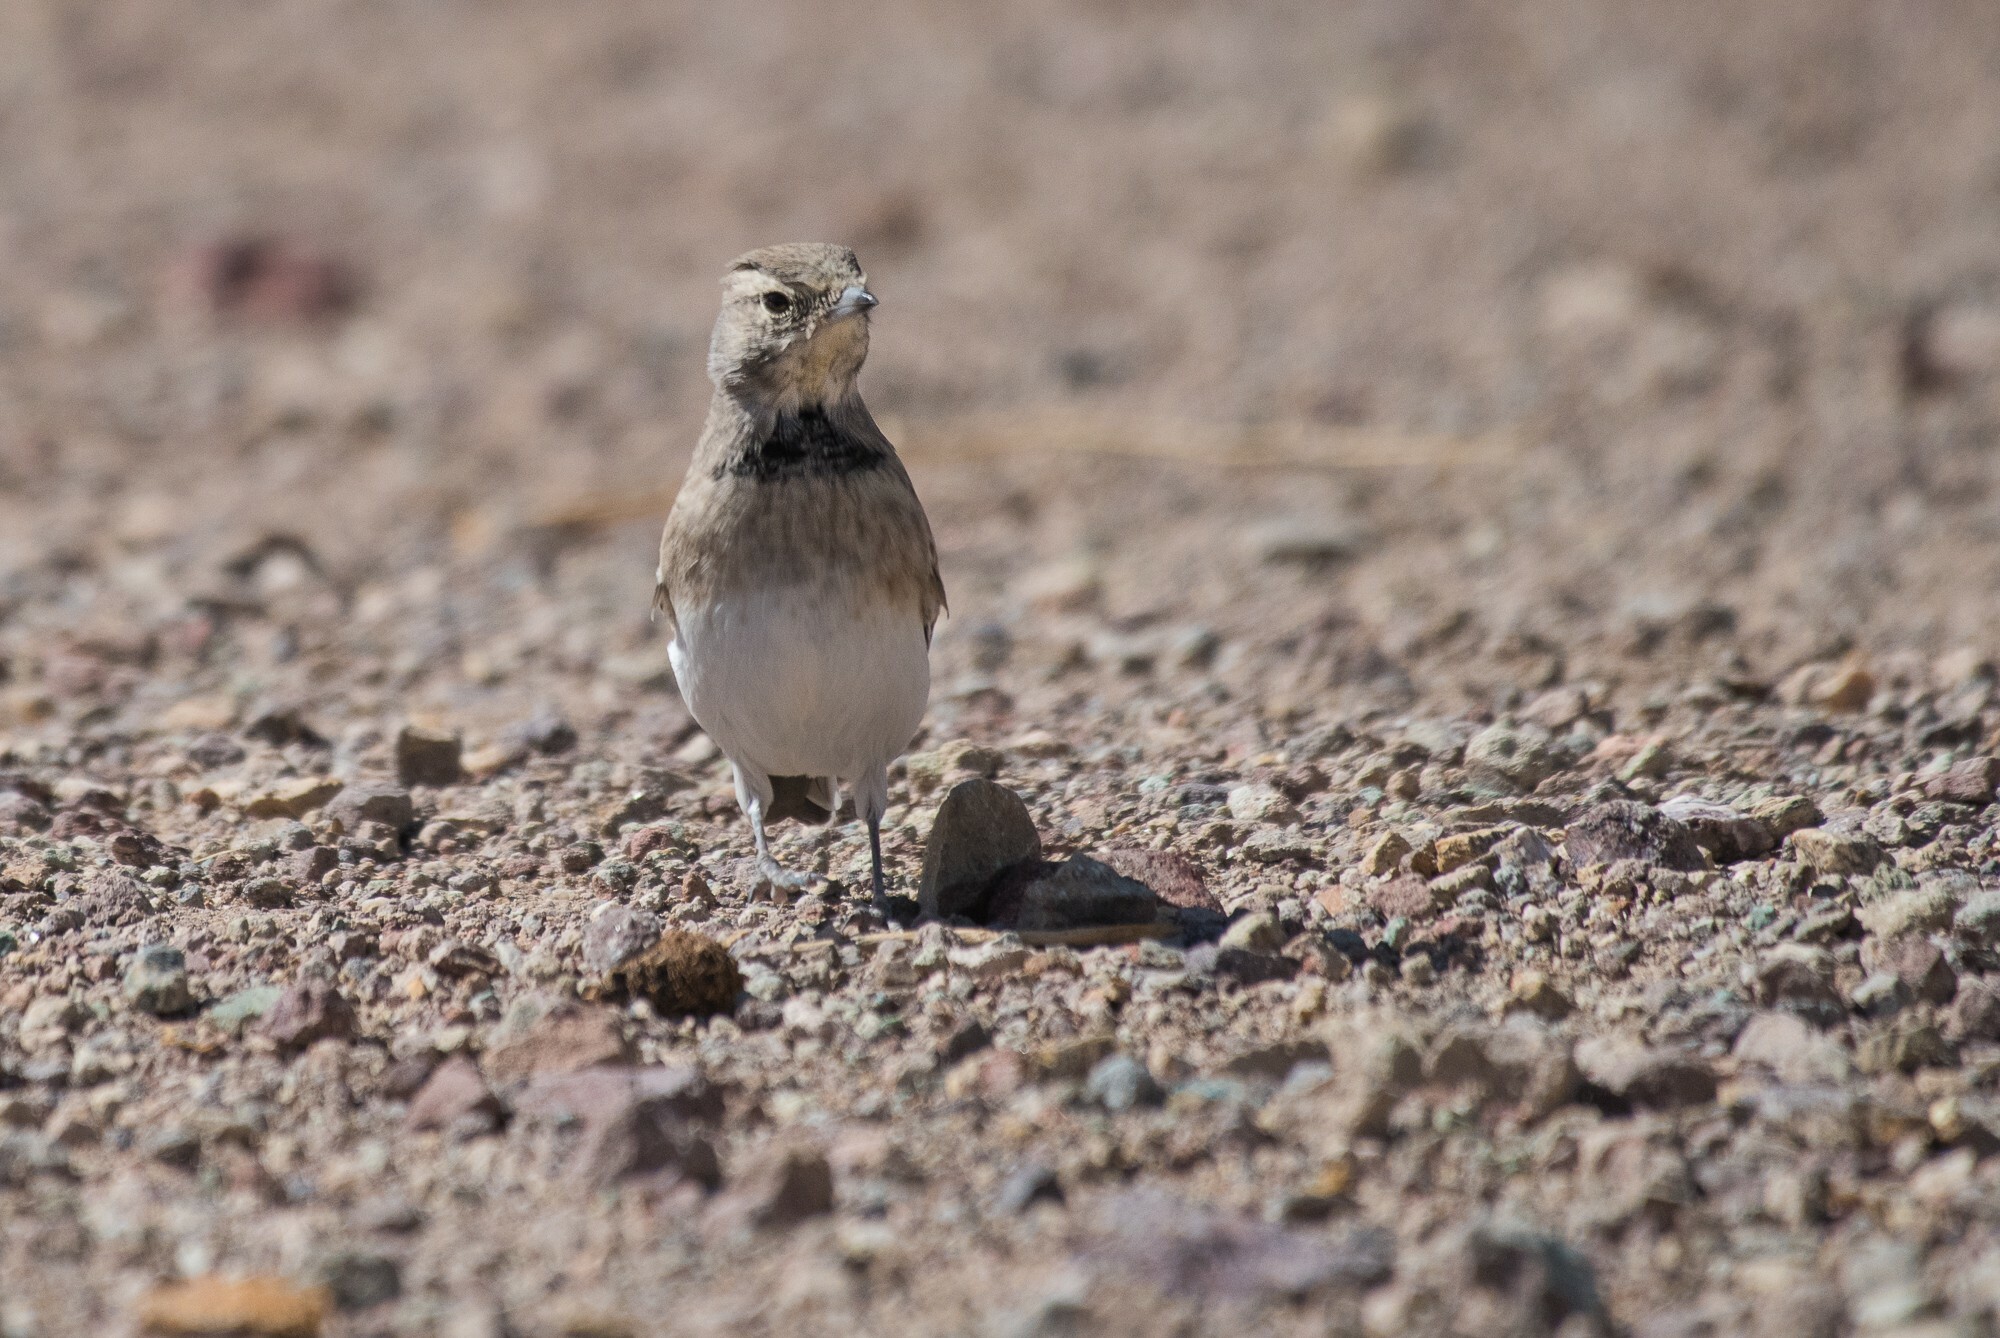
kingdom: Animalia
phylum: Chordata
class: Aves
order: Passeriformes
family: Alaudidae
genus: Eremophila
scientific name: Eremophila alpestris
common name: Horned lark
